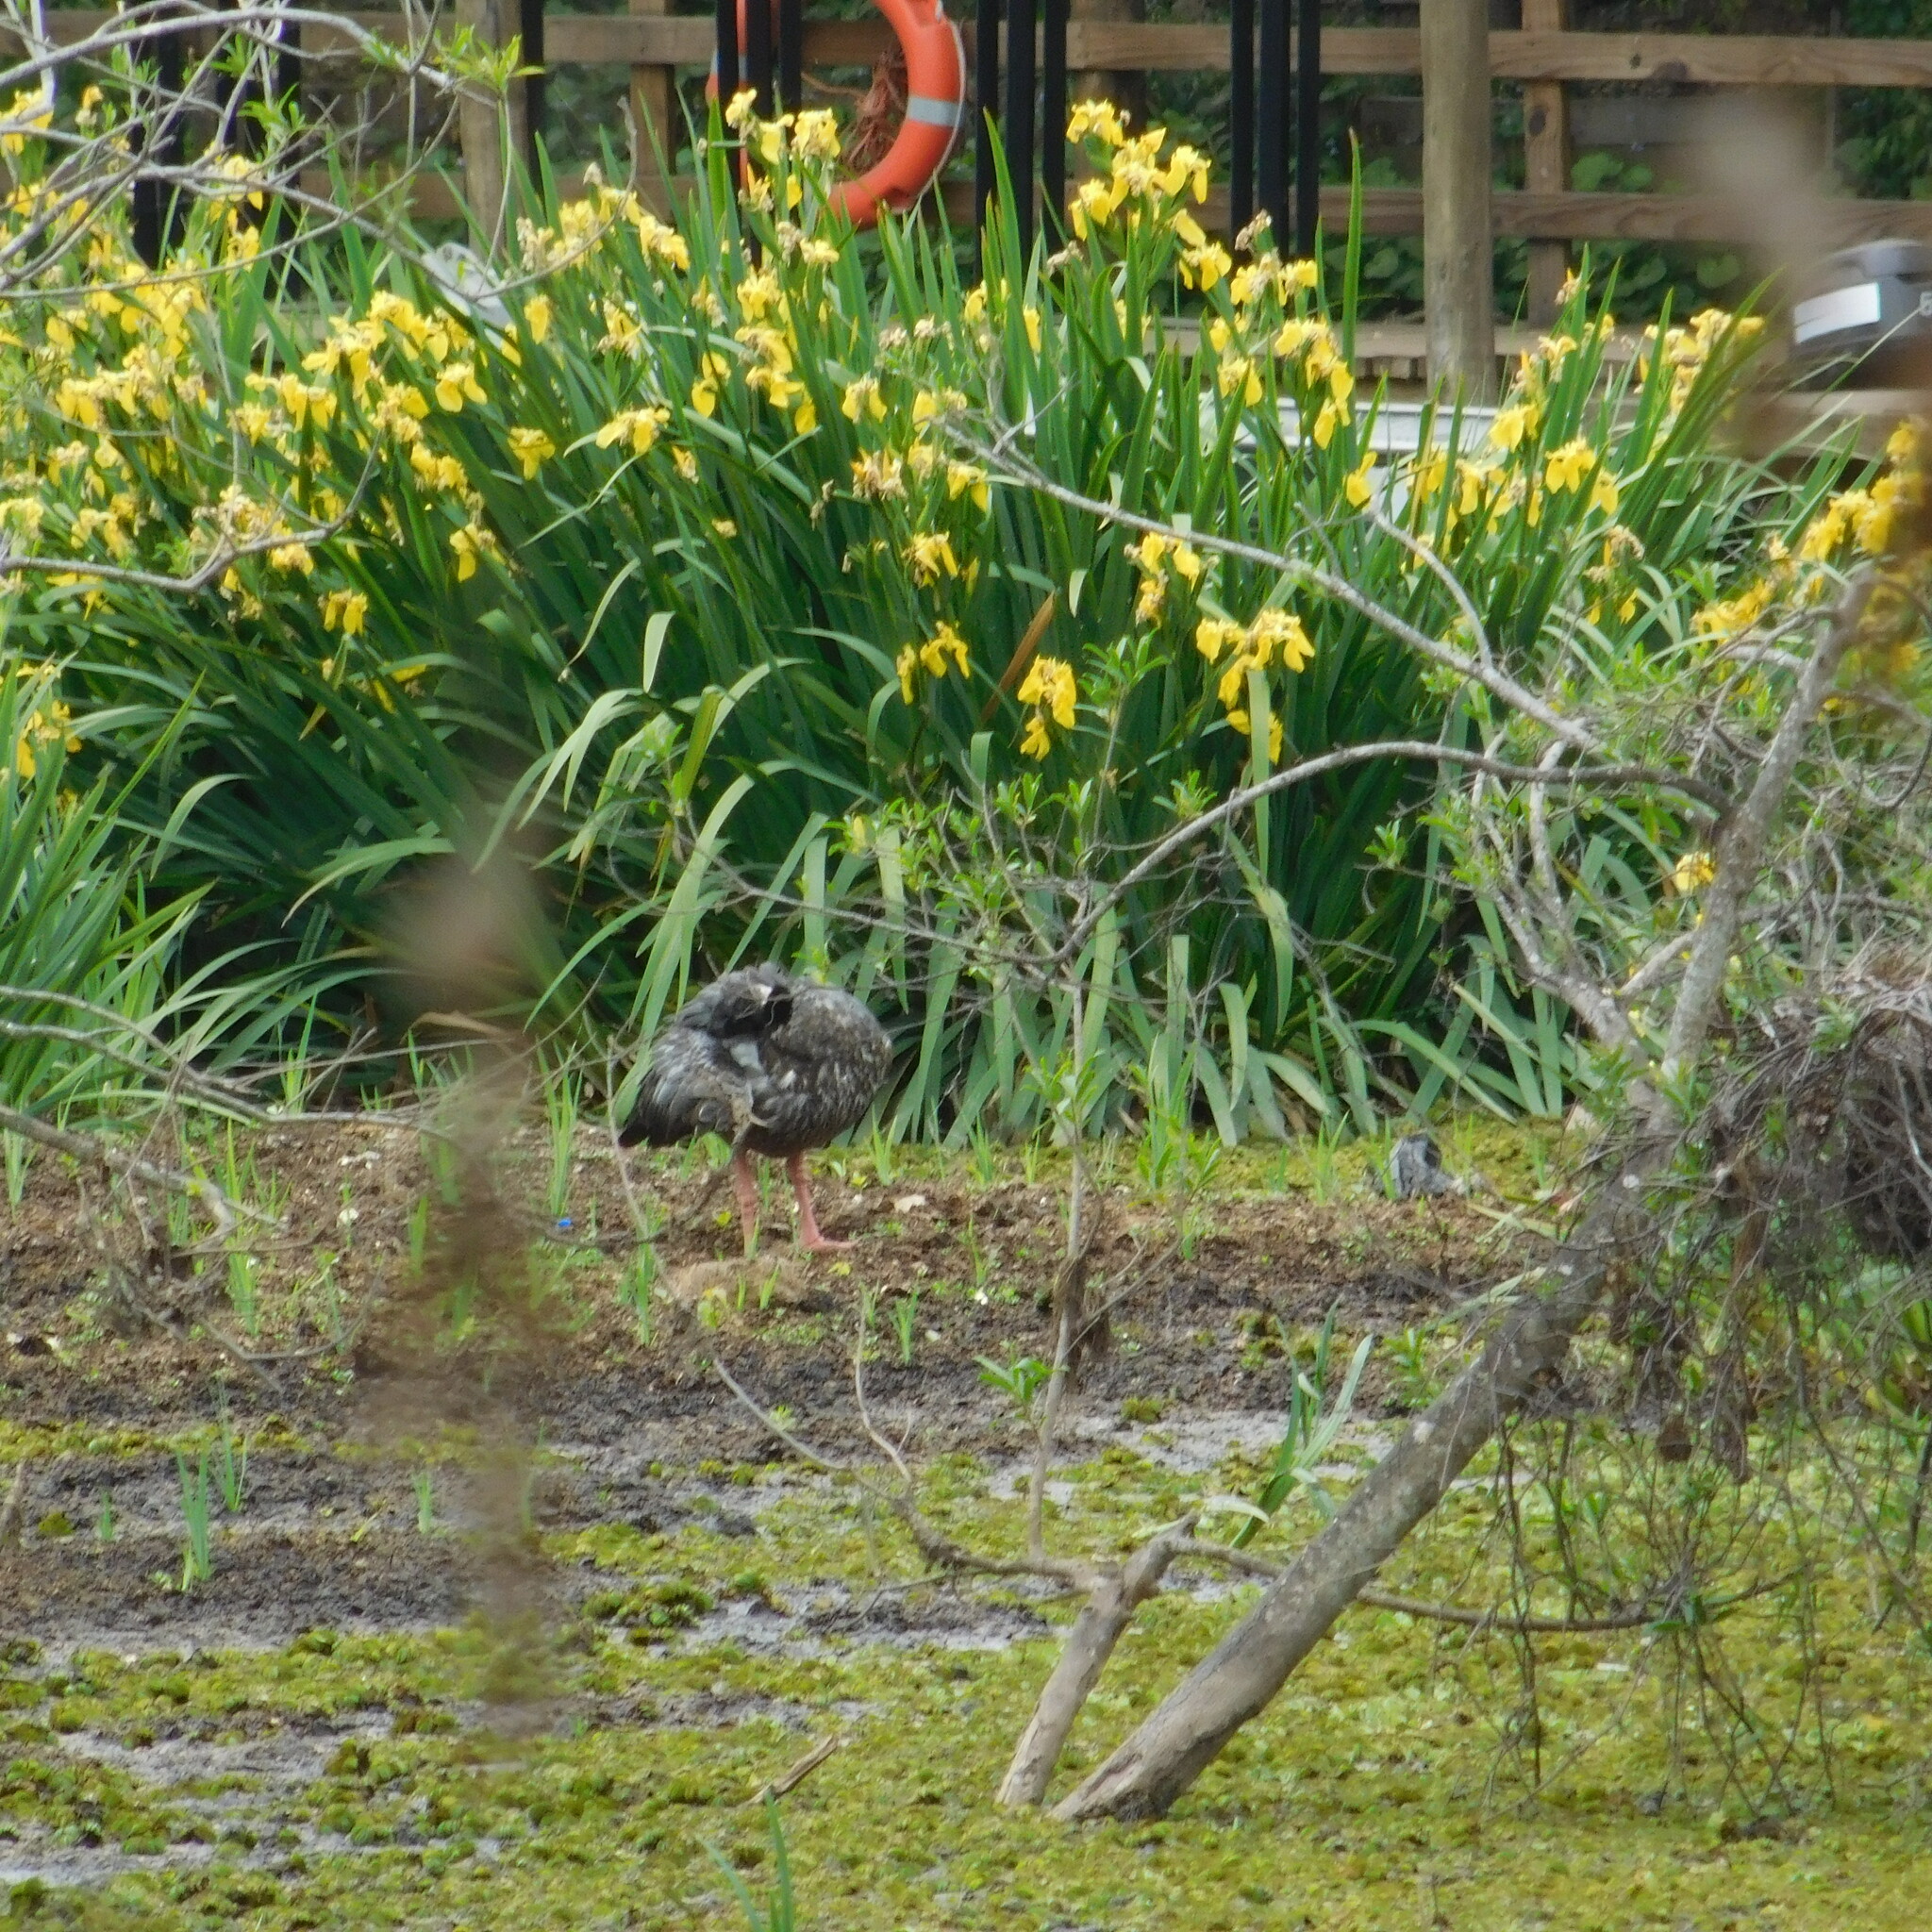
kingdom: Animalia
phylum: Chordata
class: Aves
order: Anseriformes
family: Anhimidae
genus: Chauna
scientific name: Chauna torquata
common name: Southern screamer
